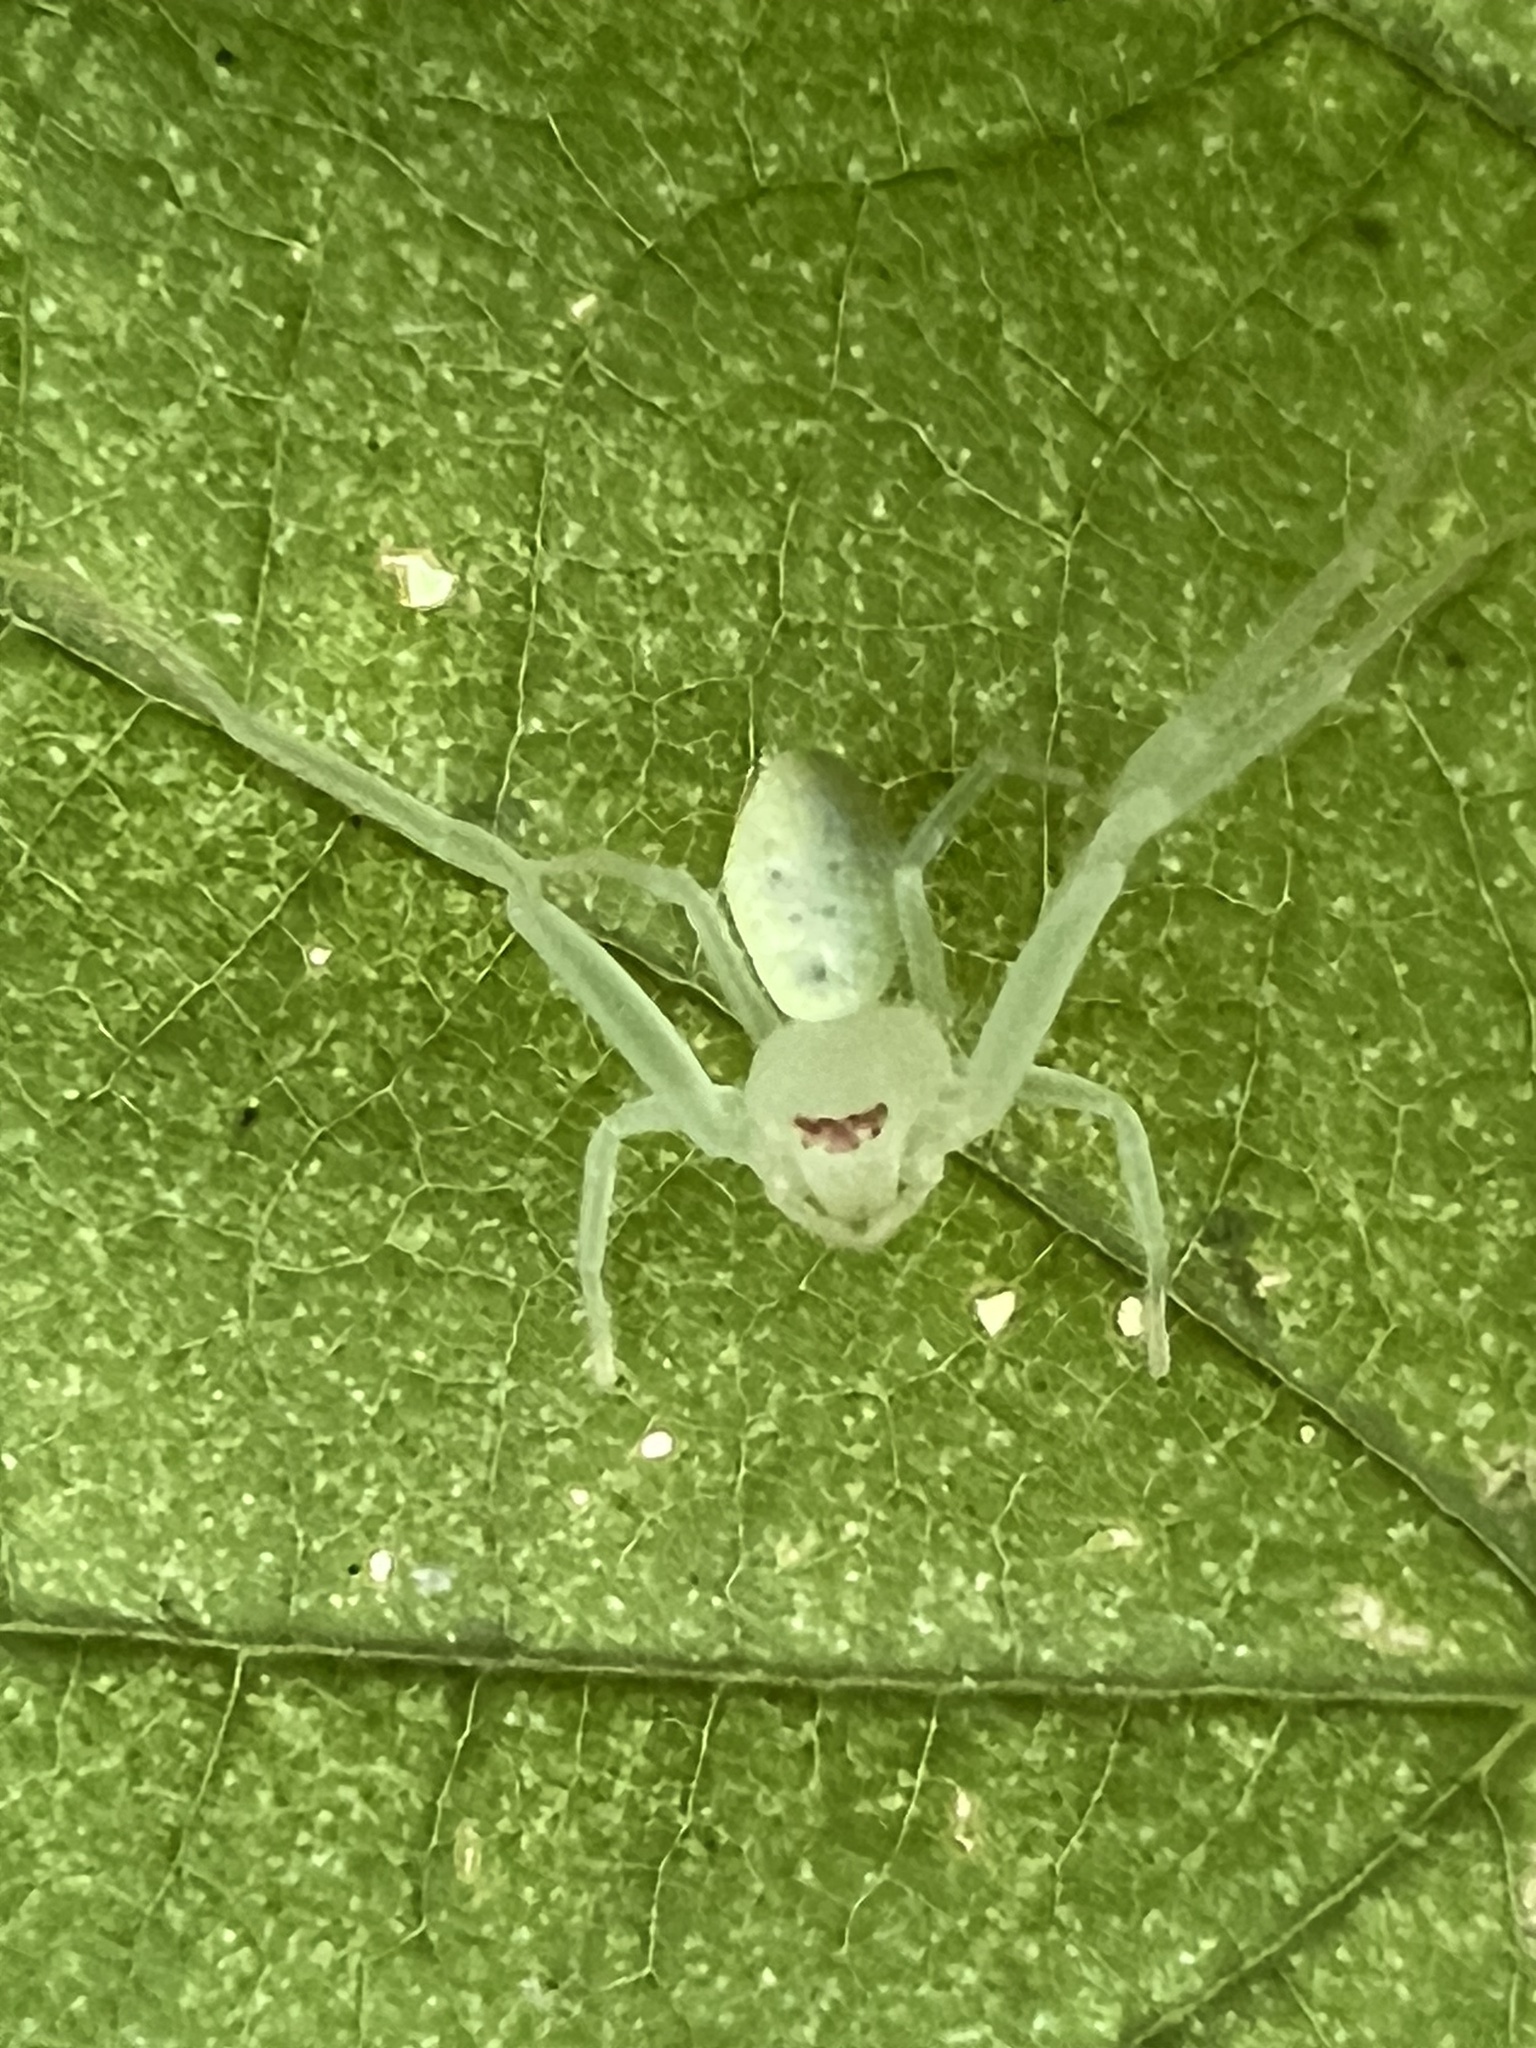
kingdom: Animalia
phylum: Arthropoda
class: Arachnida
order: Araneae
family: Thomisidae
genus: Misumessus
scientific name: Misumessus oblongus
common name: American green crab spider
